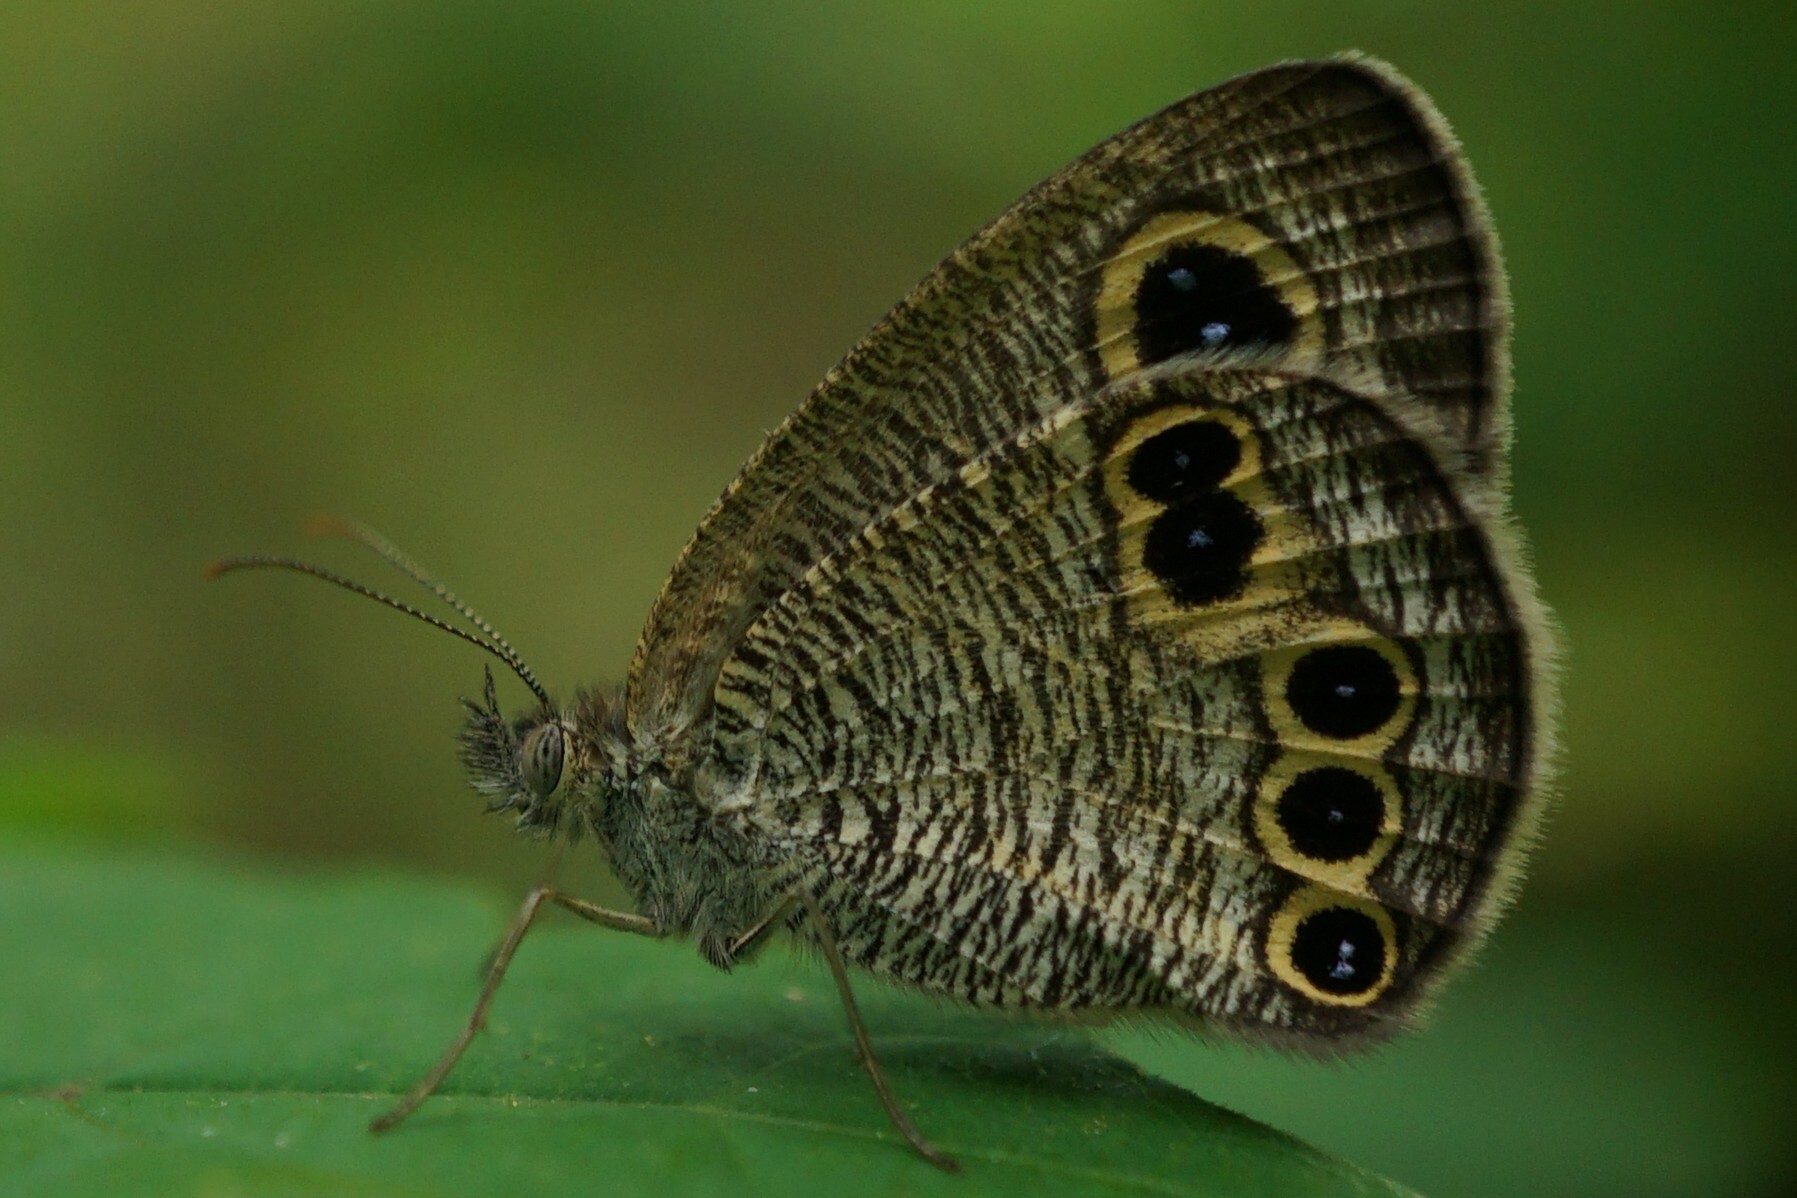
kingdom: Animalia
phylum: Arthropoda
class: Insecta
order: Lepidoptera
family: Nymphalidae
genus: Ypthima
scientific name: Ypthima argus
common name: Common fivering
